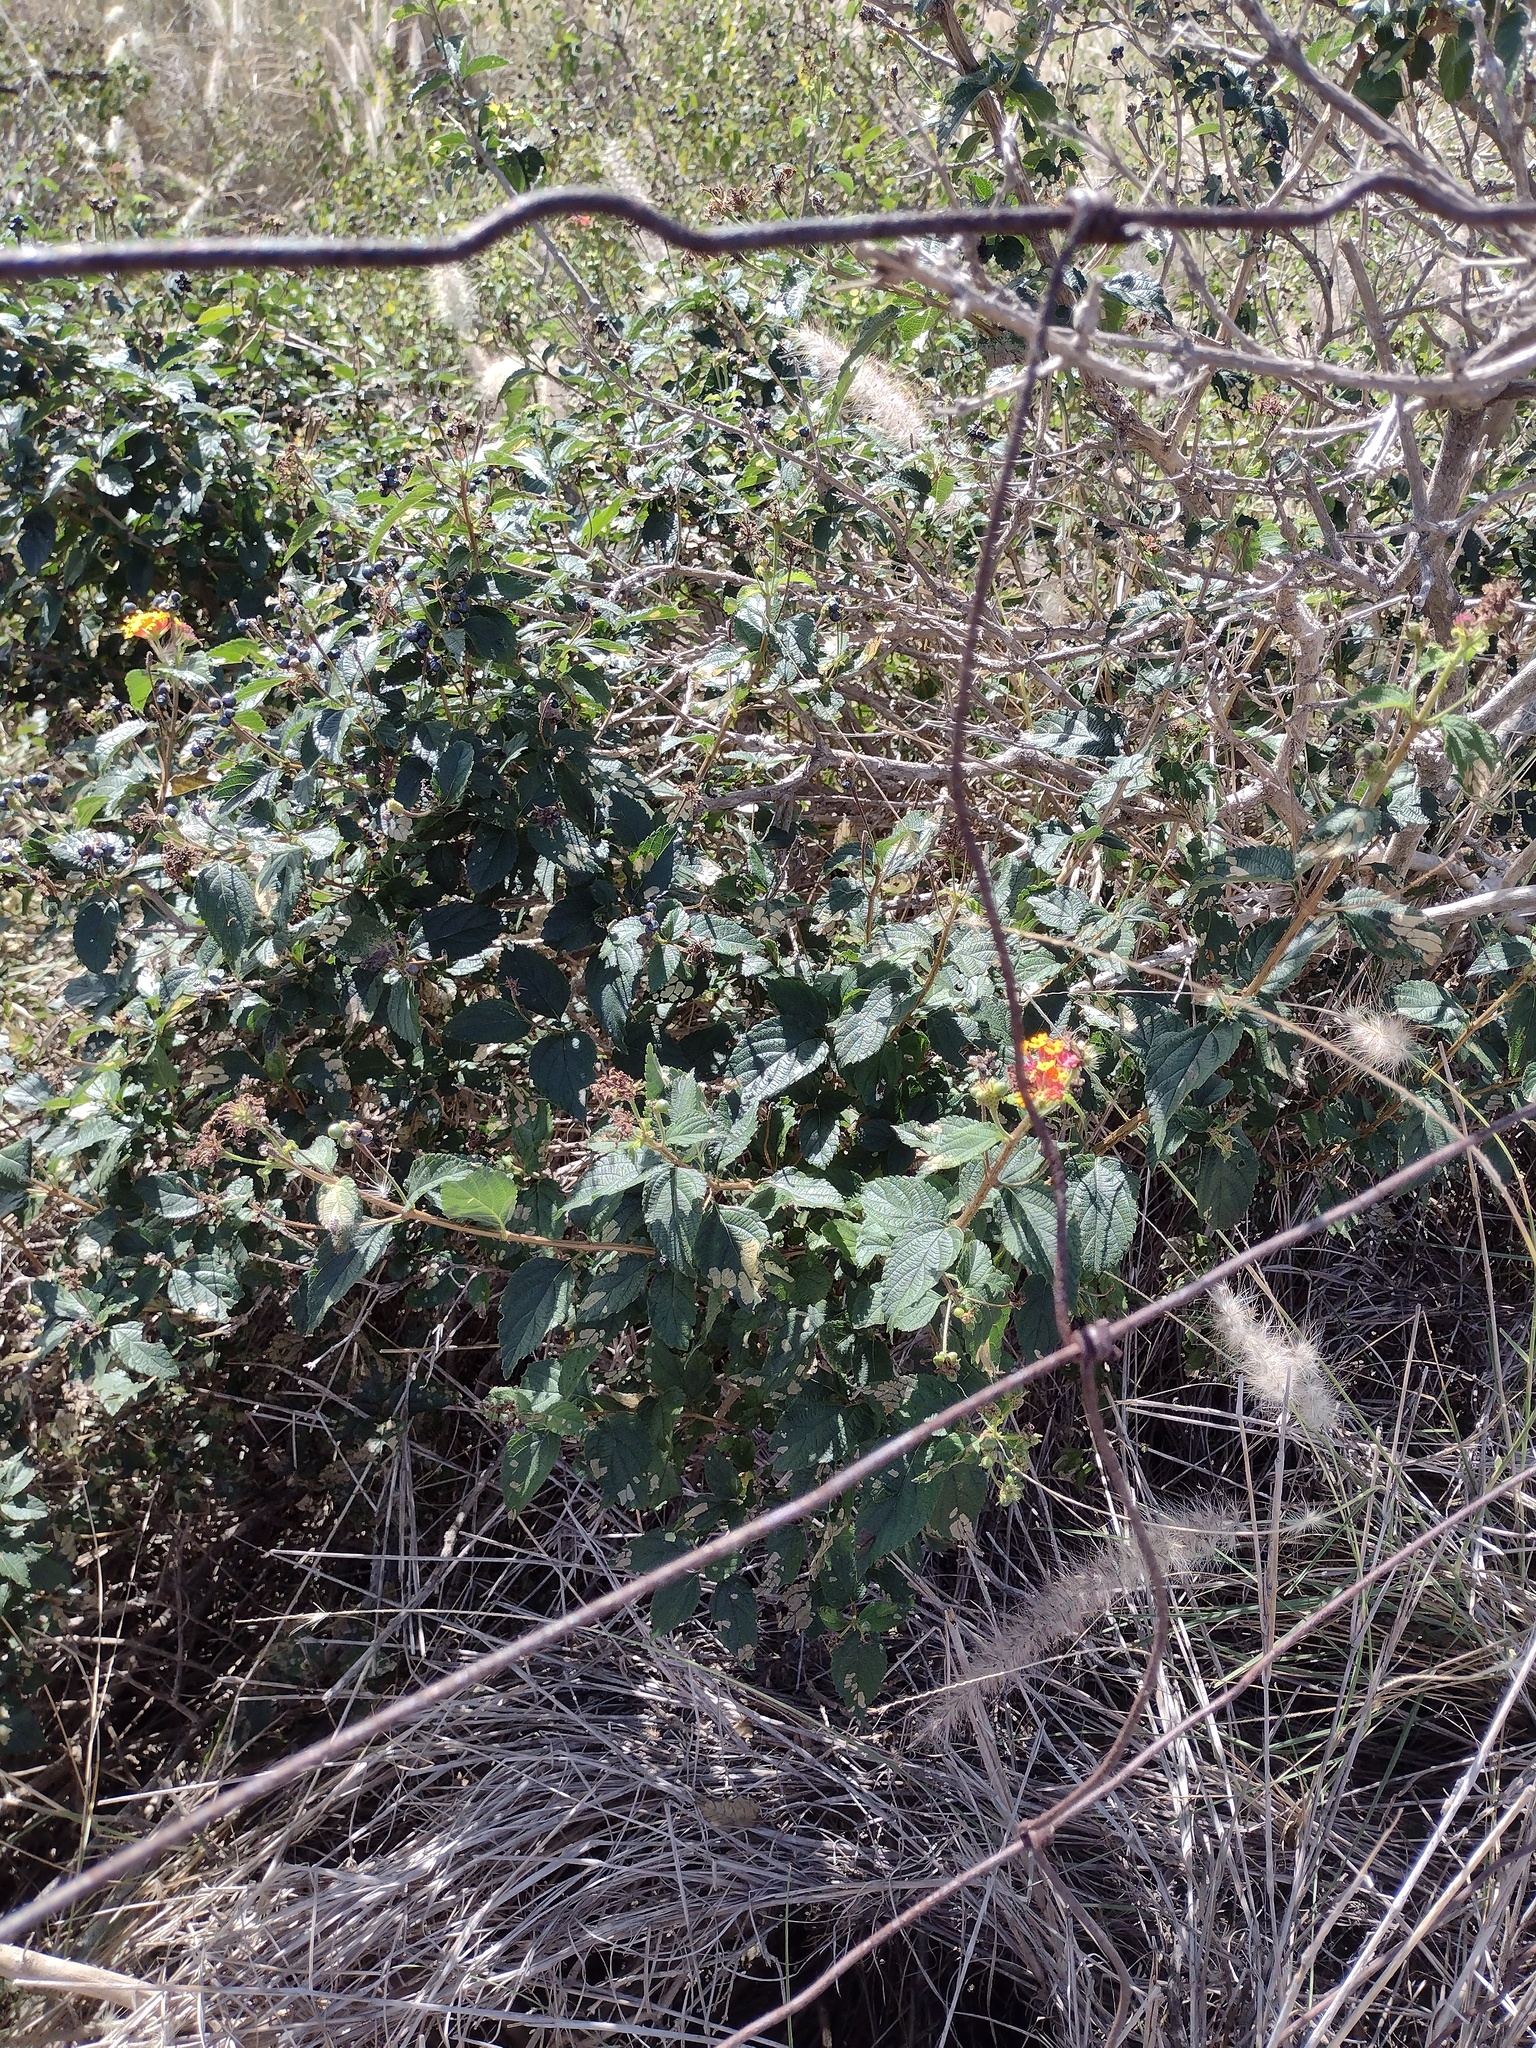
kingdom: Plantae
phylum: Tracheophyta
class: Magnoliopsida
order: Lamiales
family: Verbenaceae
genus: Lantana
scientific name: Lantana camara
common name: Lantana
